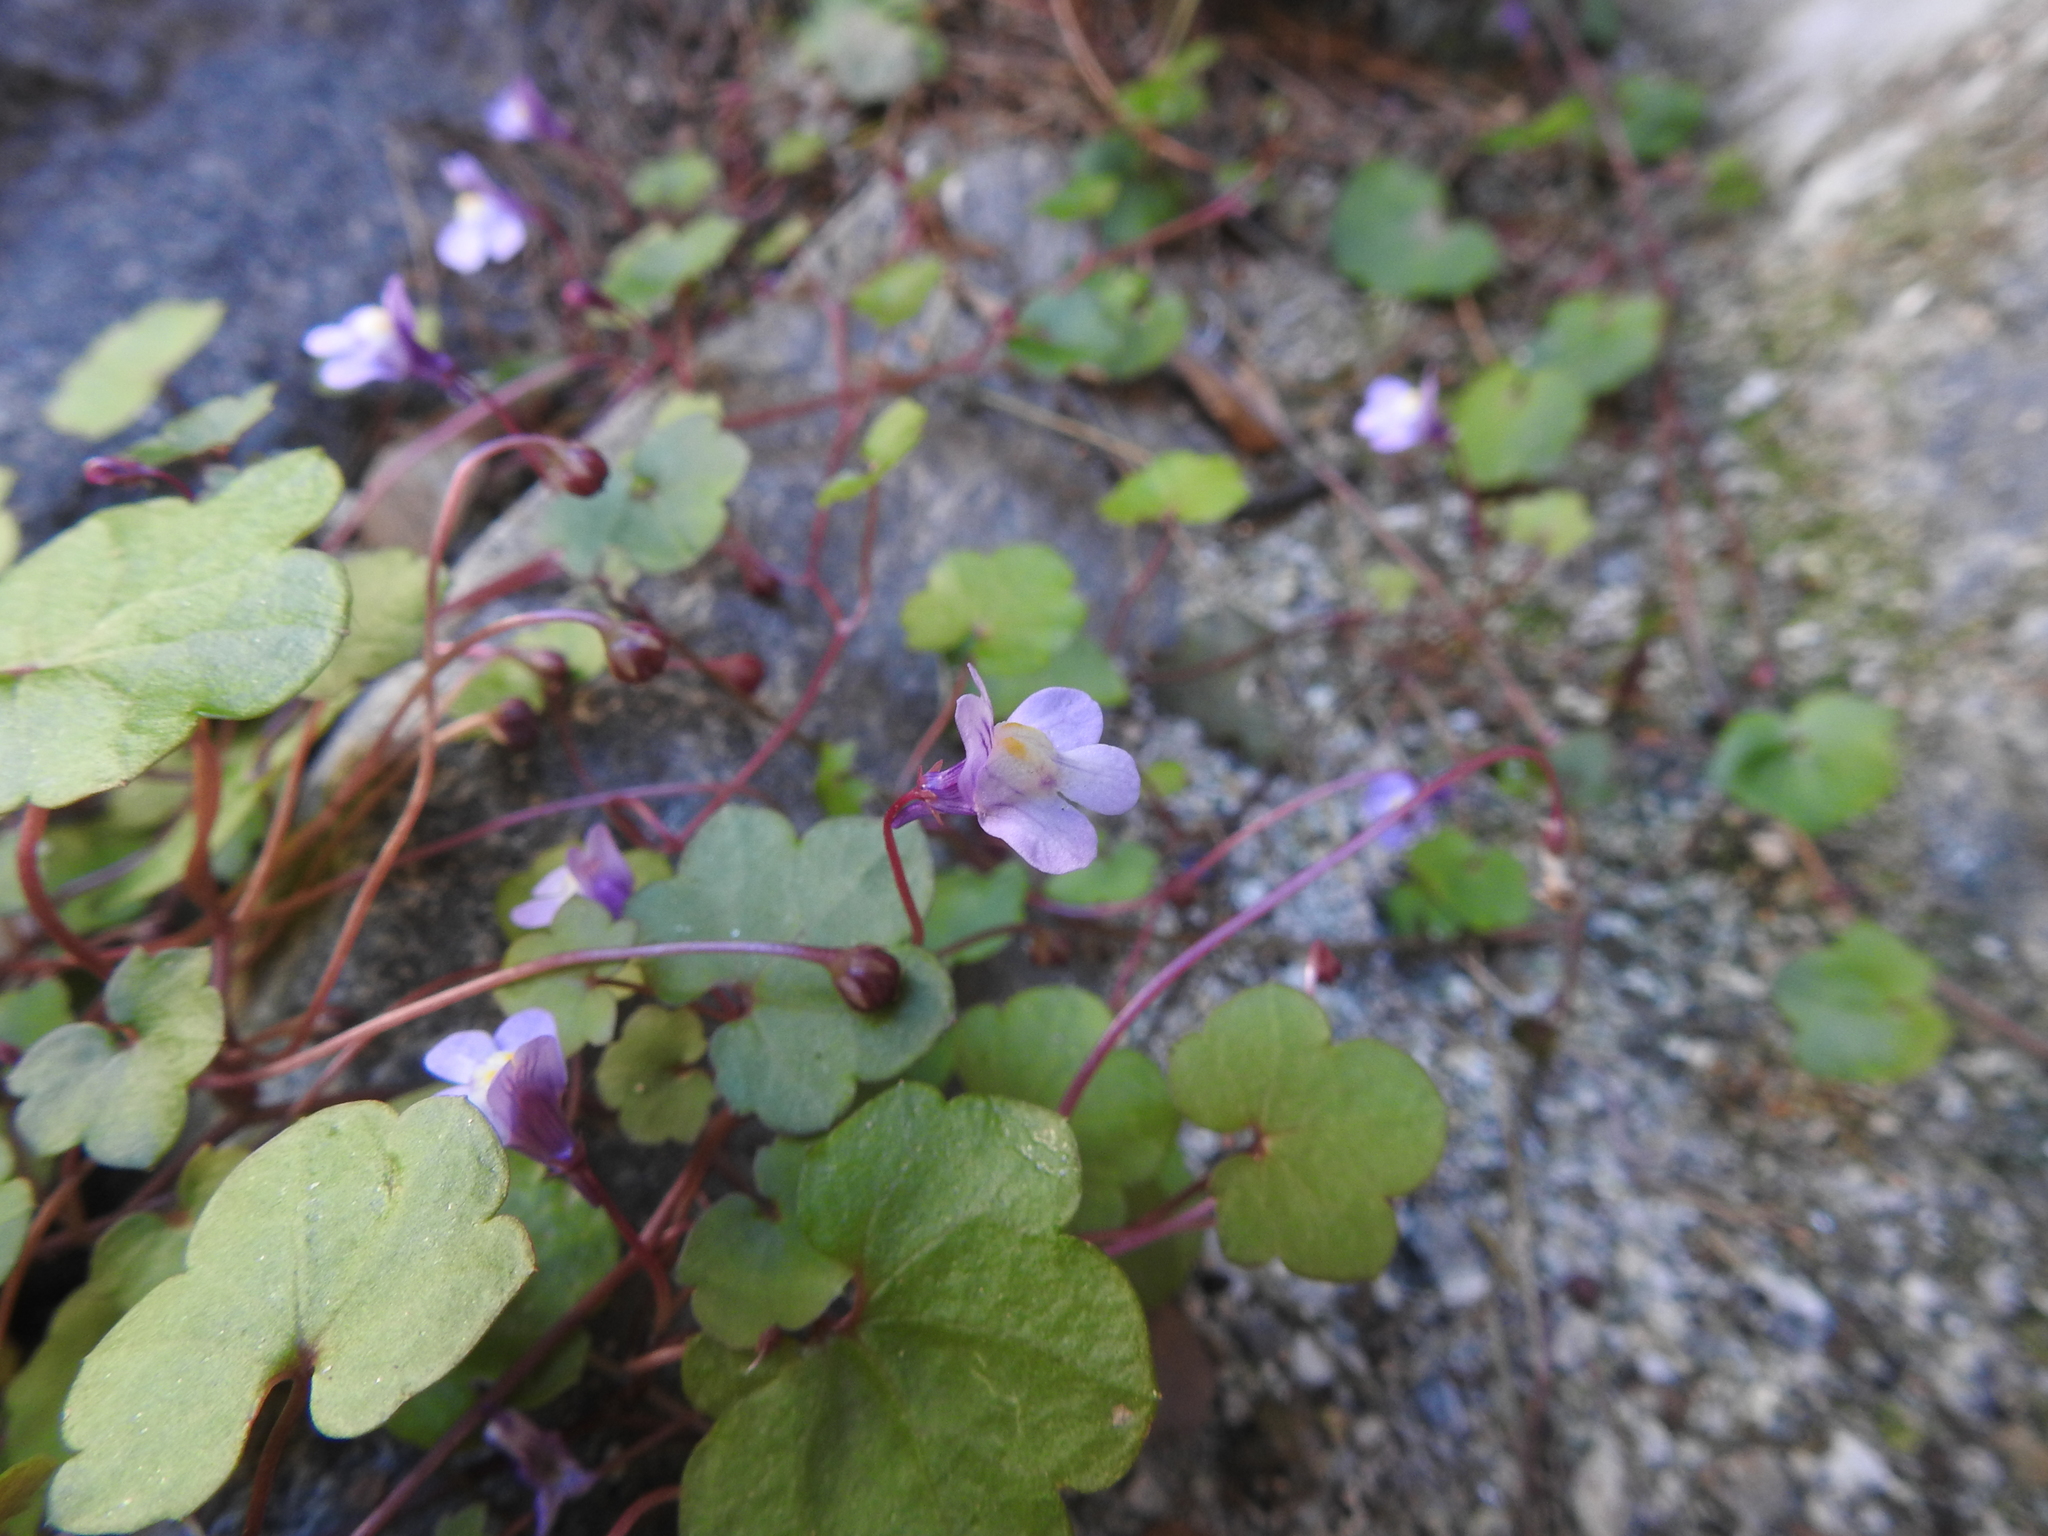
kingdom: Plantae
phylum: Tracheophyta
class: Magnoliopsida
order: Lamiales
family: Plantaginaceae
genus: Cymbalaria
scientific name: Cymbalaria muralis
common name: Ivy-leaved toadflax
